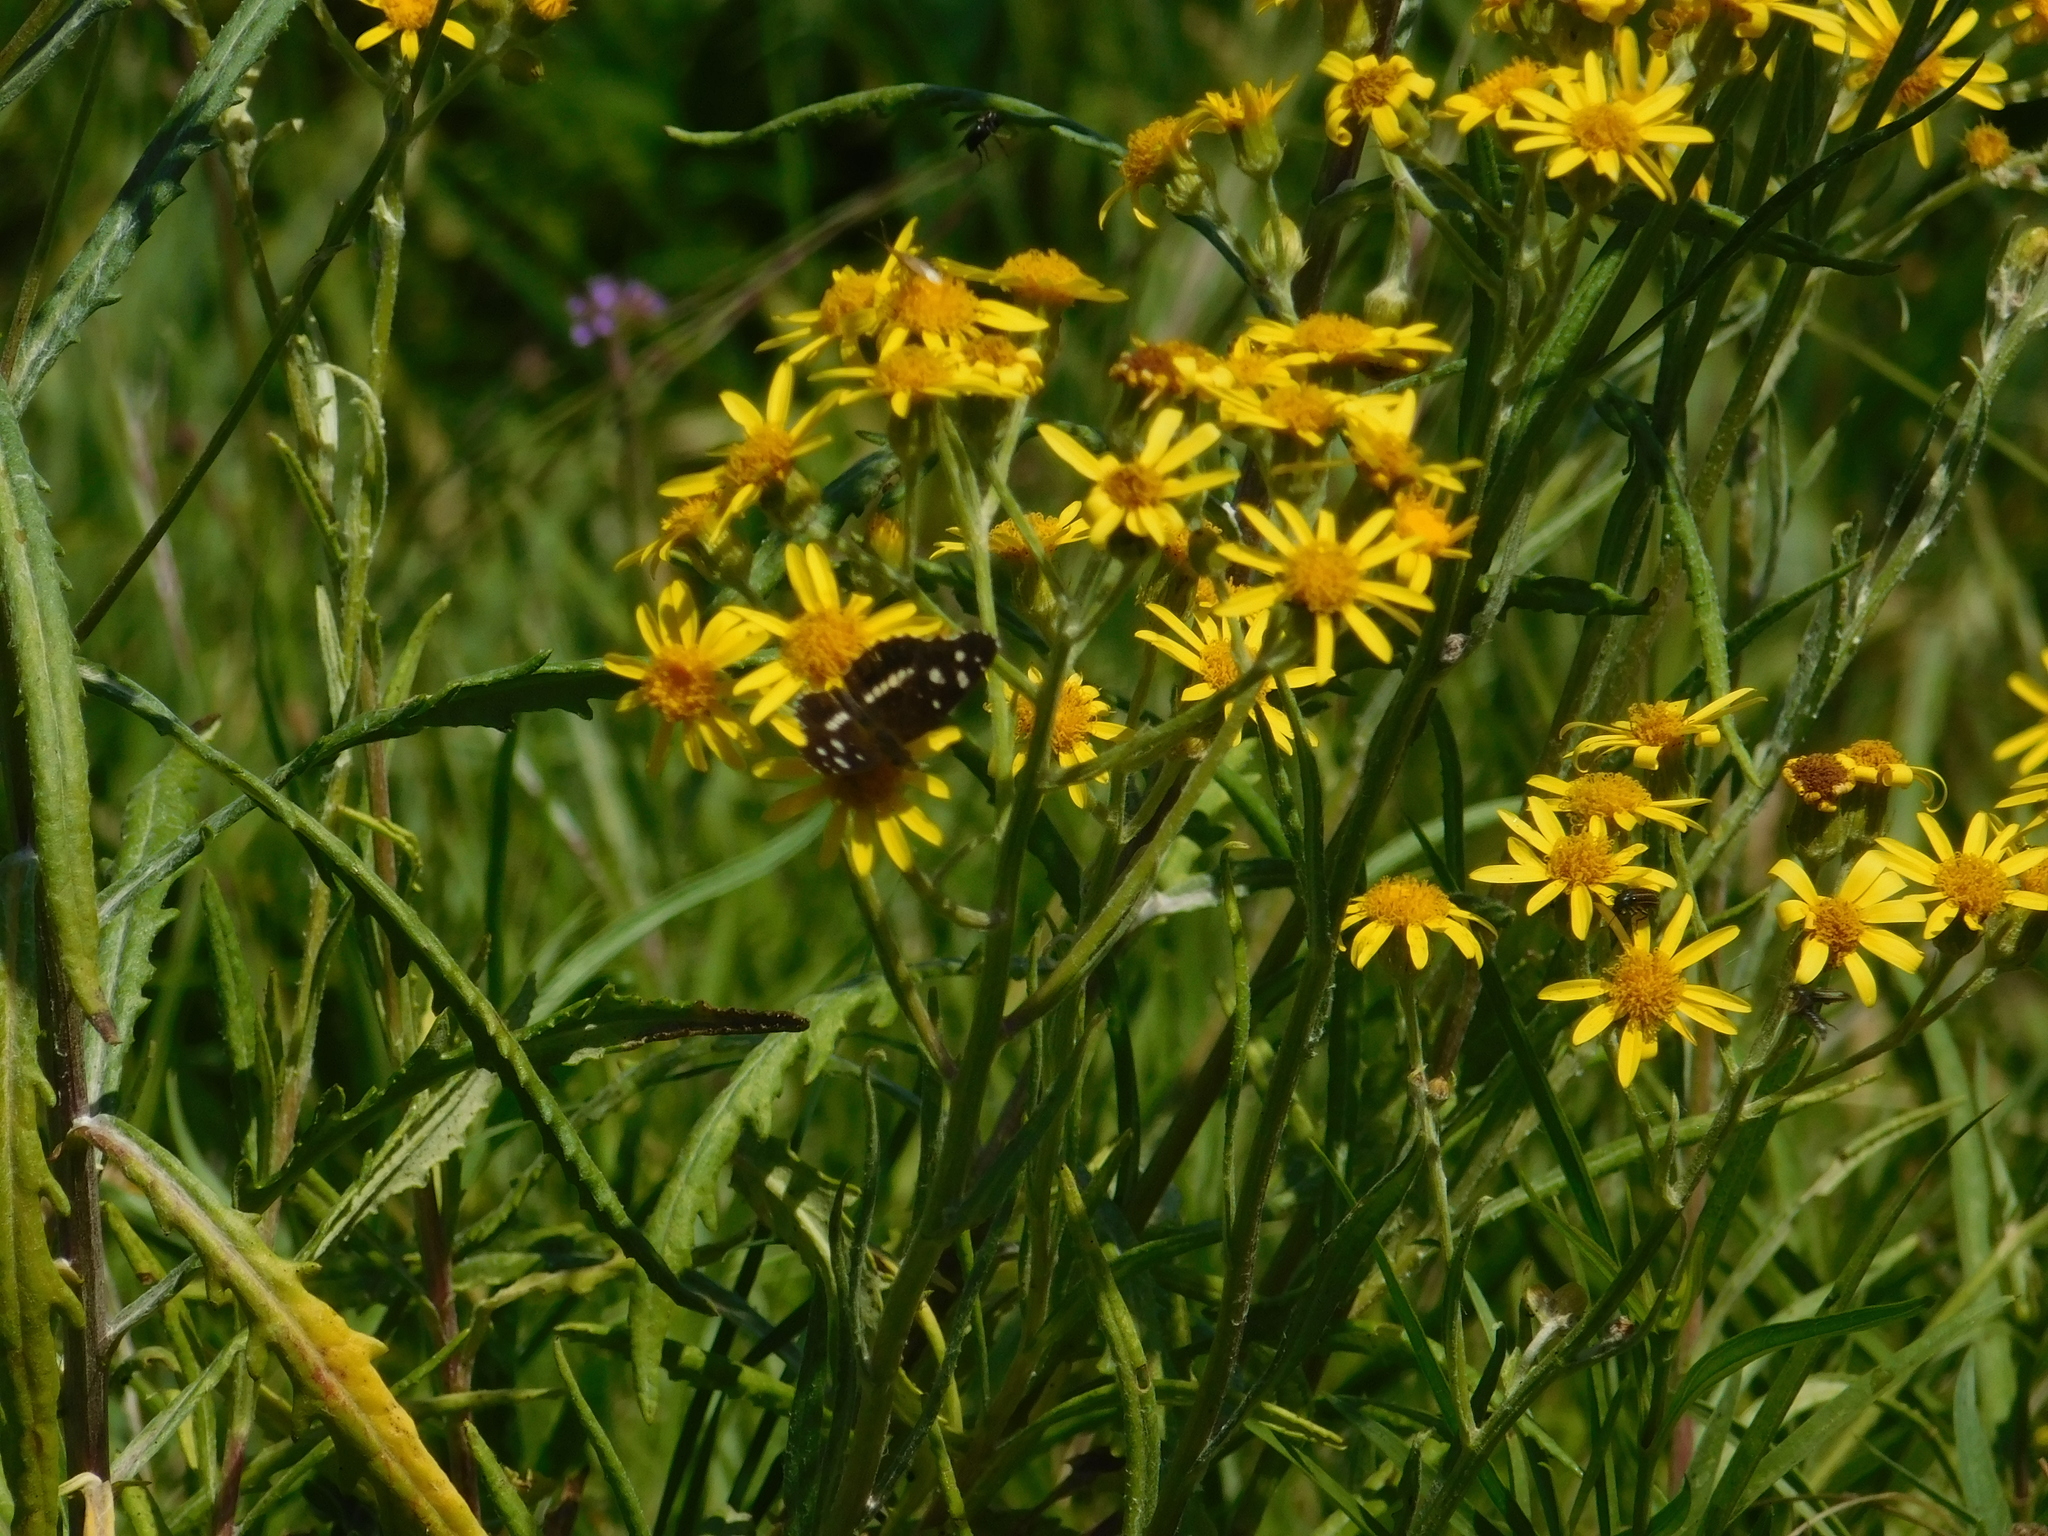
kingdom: Animalia
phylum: Arthropoda
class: Insecta
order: Lepidoptera
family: Nymphalidae
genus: Ortilia
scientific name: Ortilia ithra
